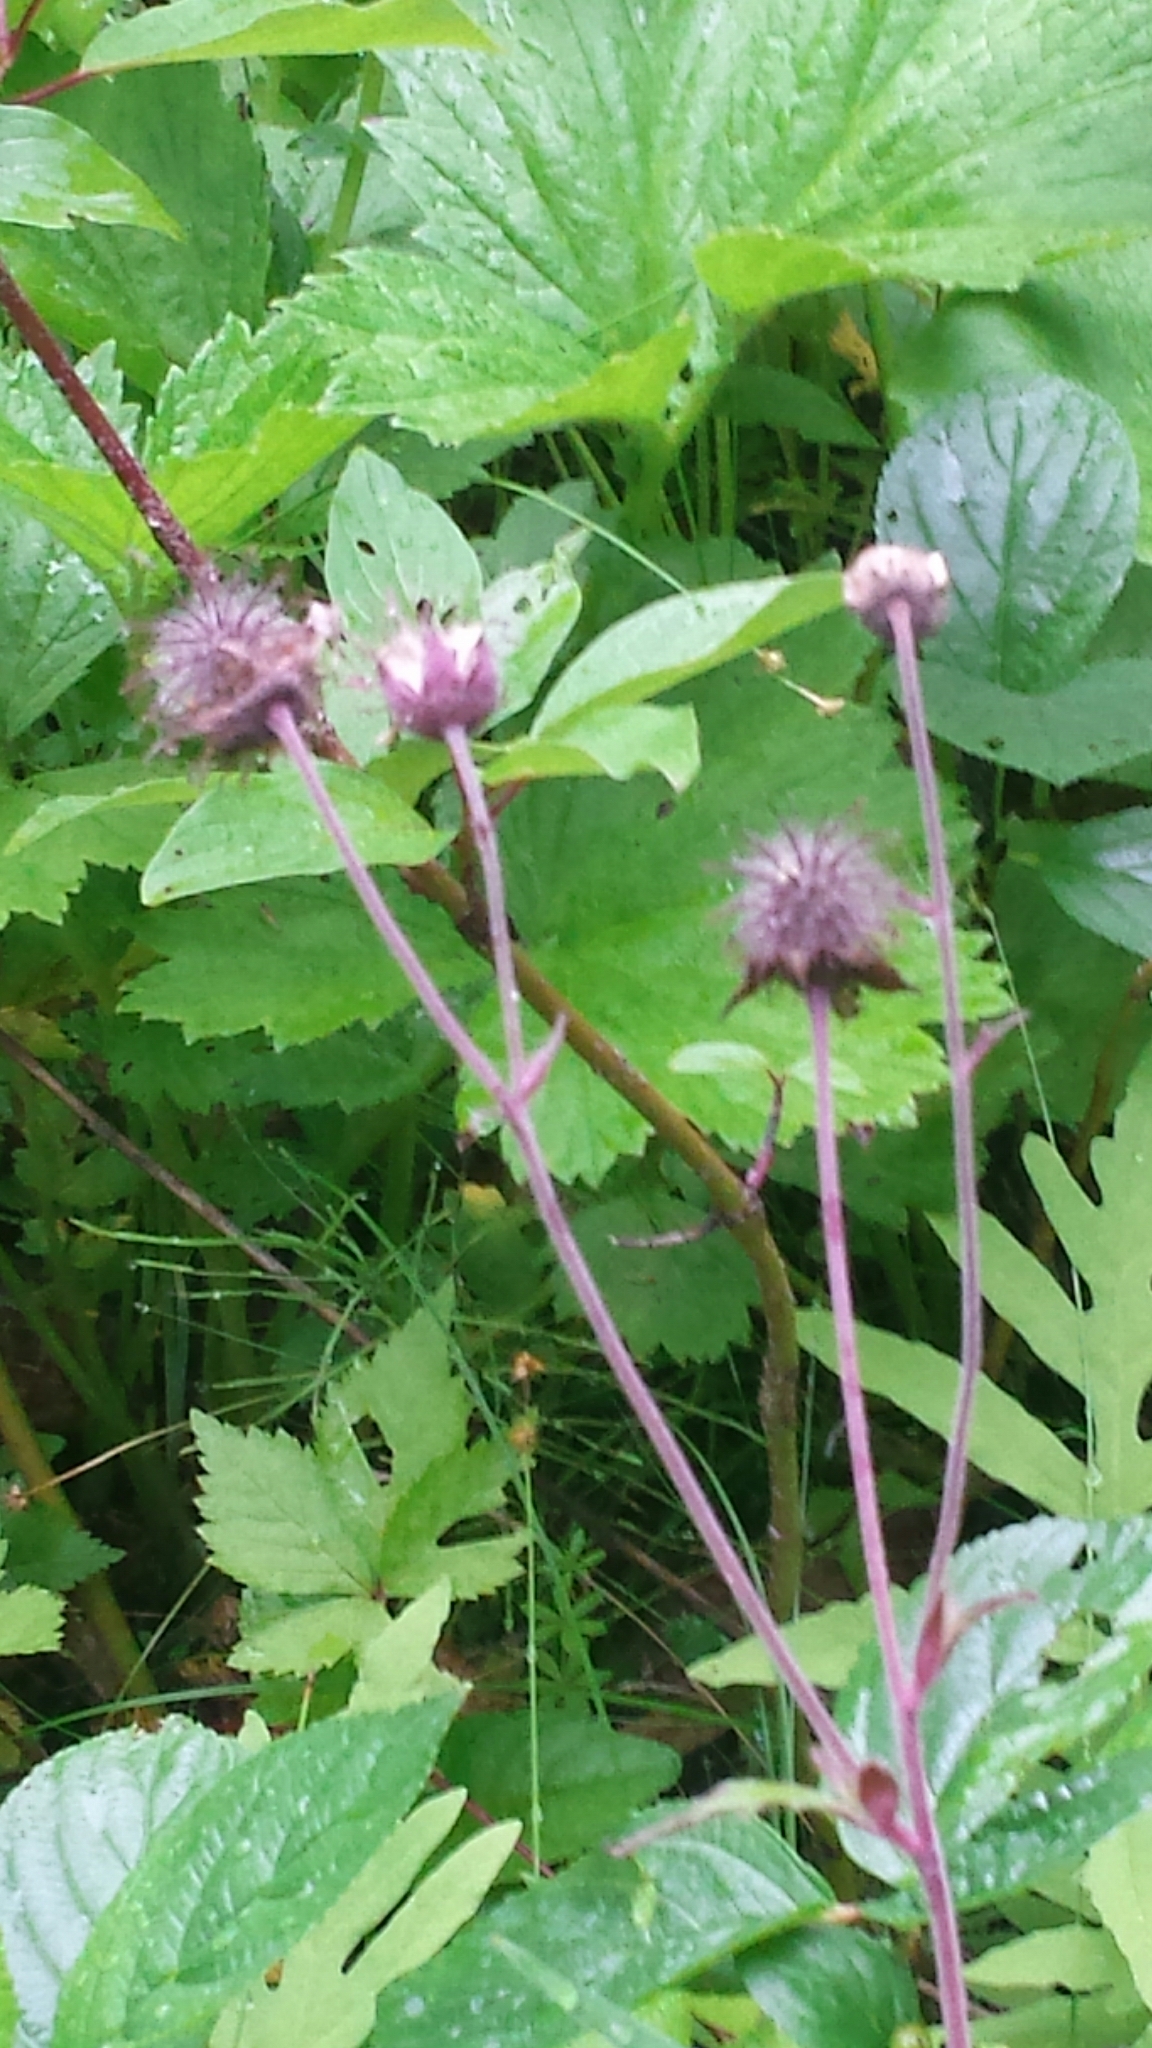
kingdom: Plantae
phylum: Tracheophyta
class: Magnoliopsida
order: Rosales
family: Rosaceae
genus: Geum
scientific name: Geum rivale
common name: Water avens
